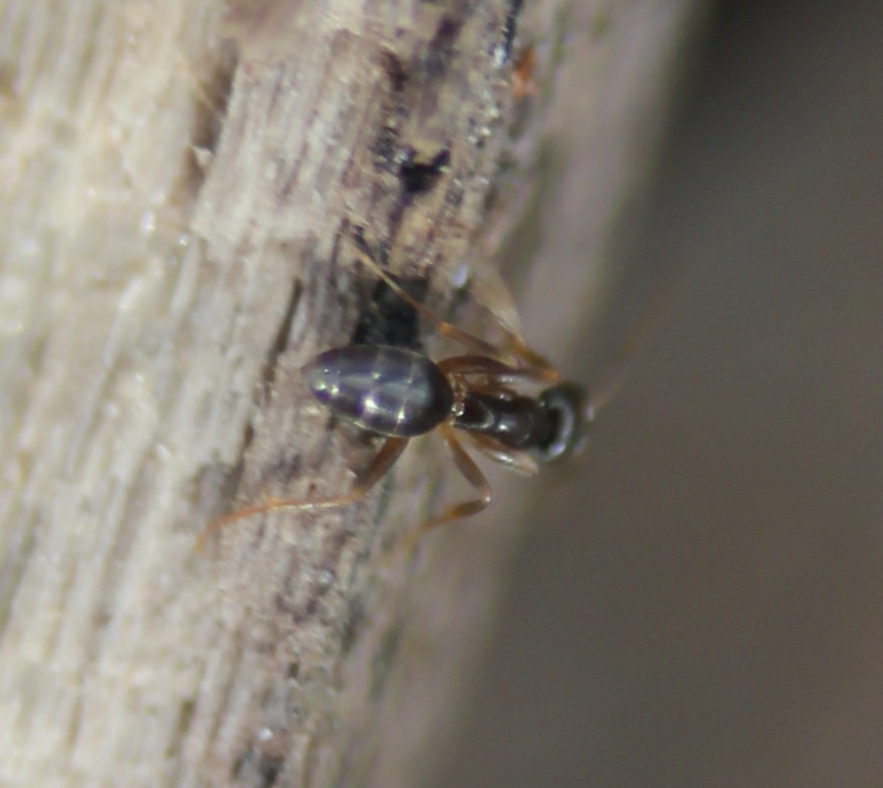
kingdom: Animalia
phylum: Arthropoda
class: Insecta
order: Hymenoptera
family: Formicidae
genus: Tapinoma
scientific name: Tapinoma sessile
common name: Odorous house ant
